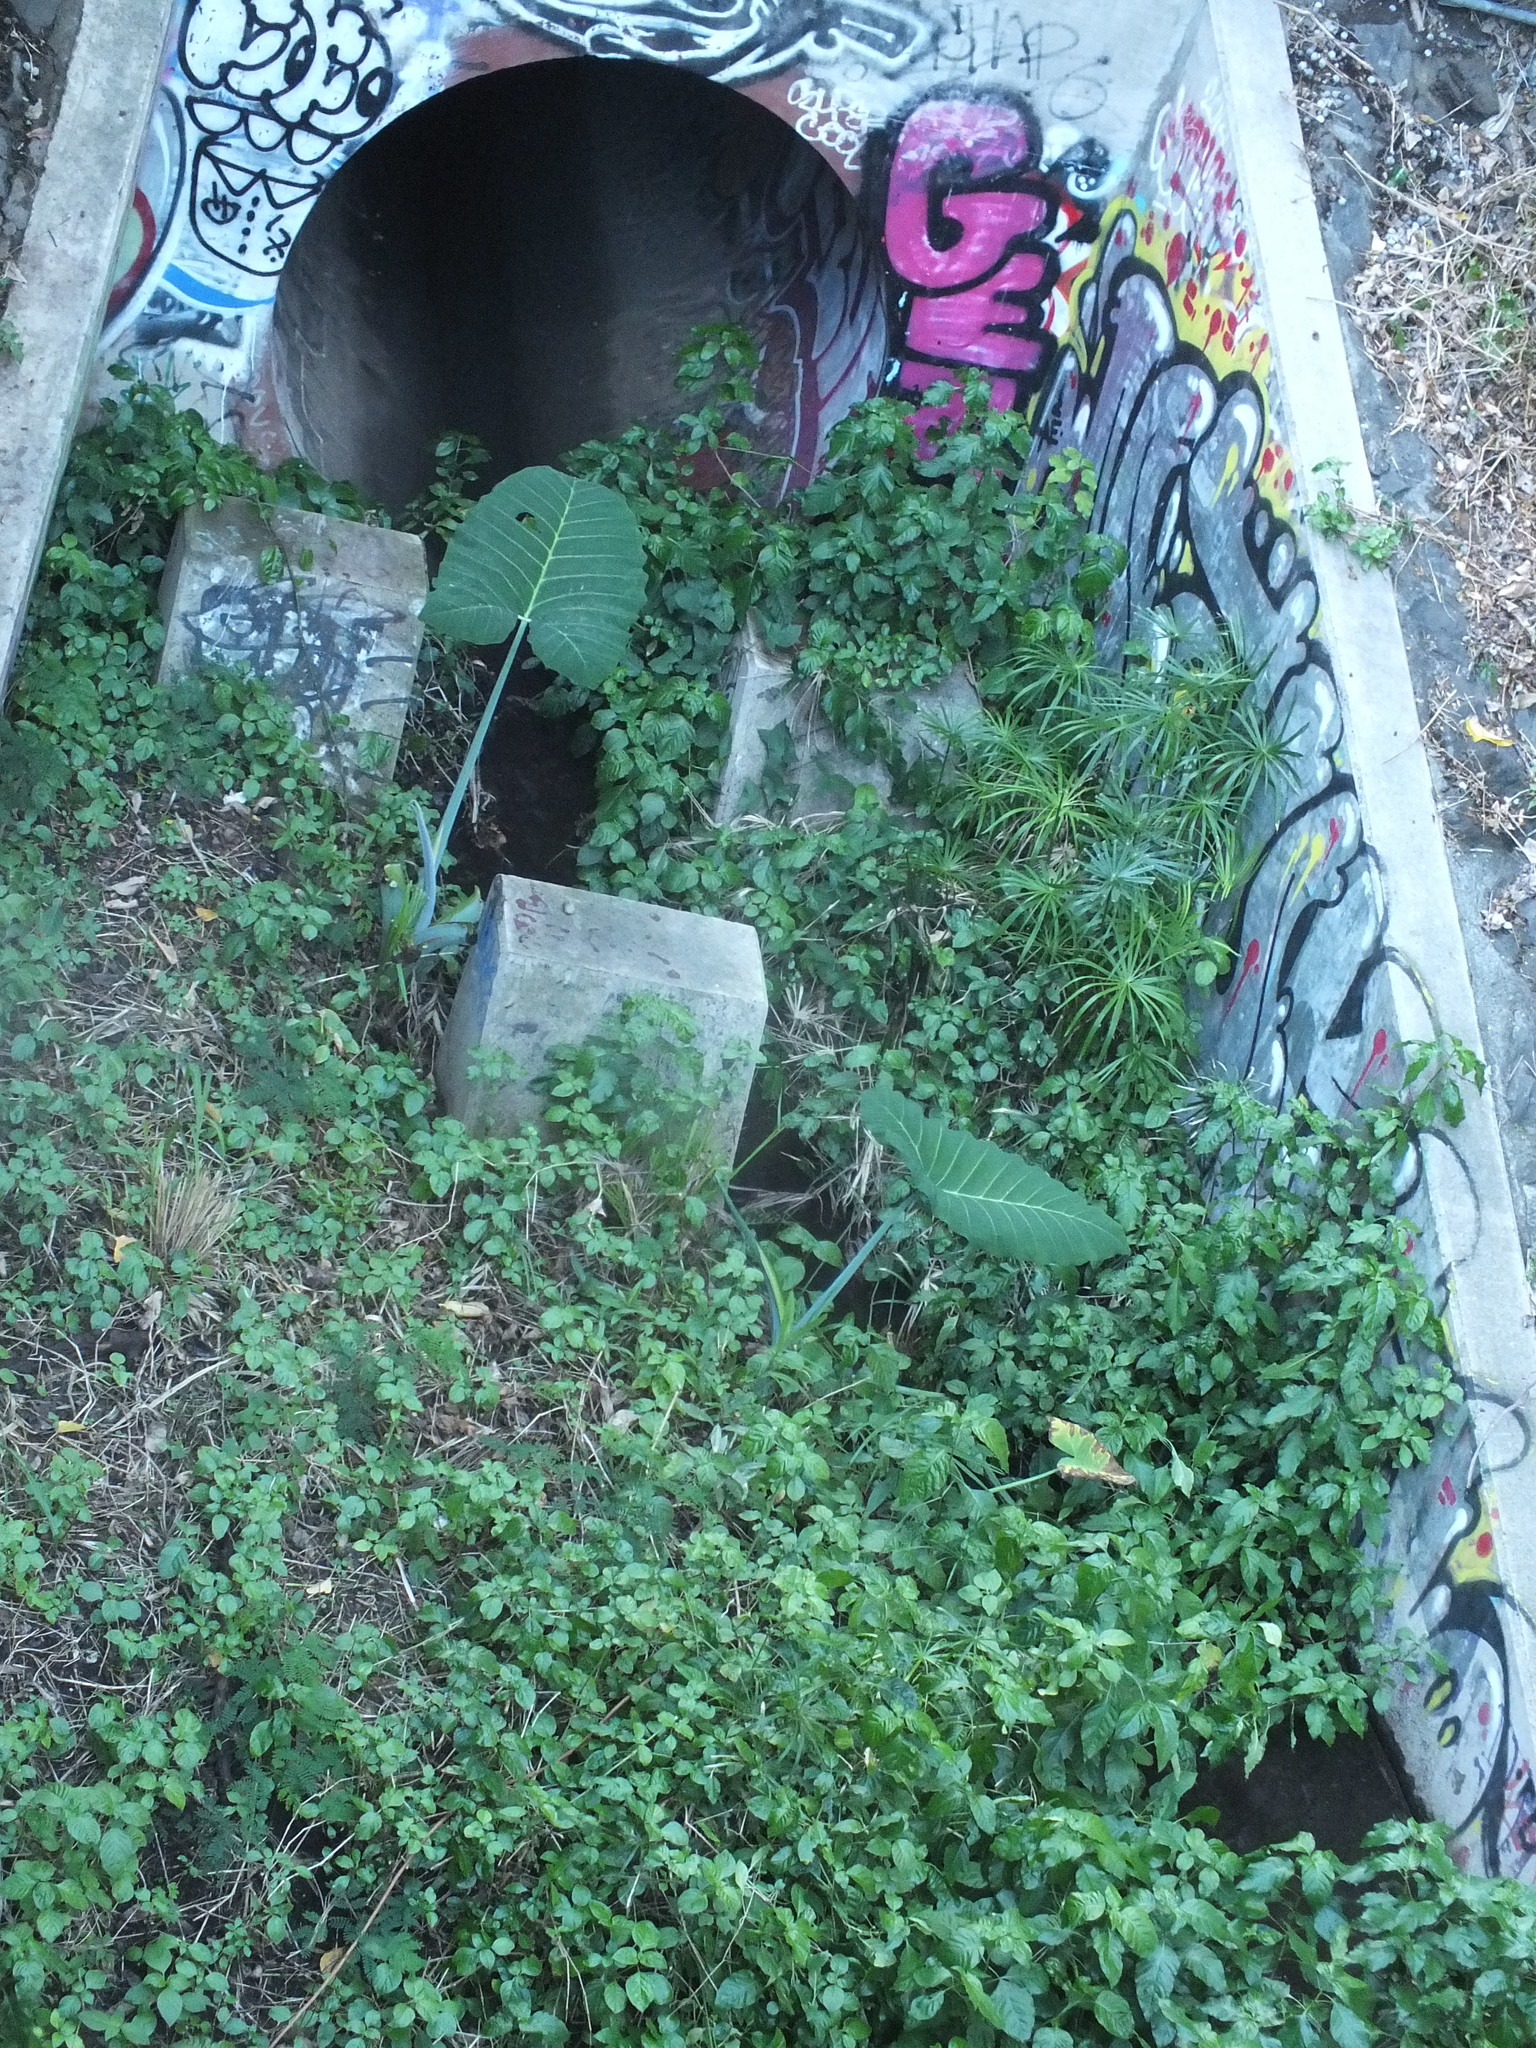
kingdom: Plantae
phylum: Tracheophyta
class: Liliopsida
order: Alismatales
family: Araceae
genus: Xanthosoma
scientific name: Xanthosoma robustum
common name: Capote
